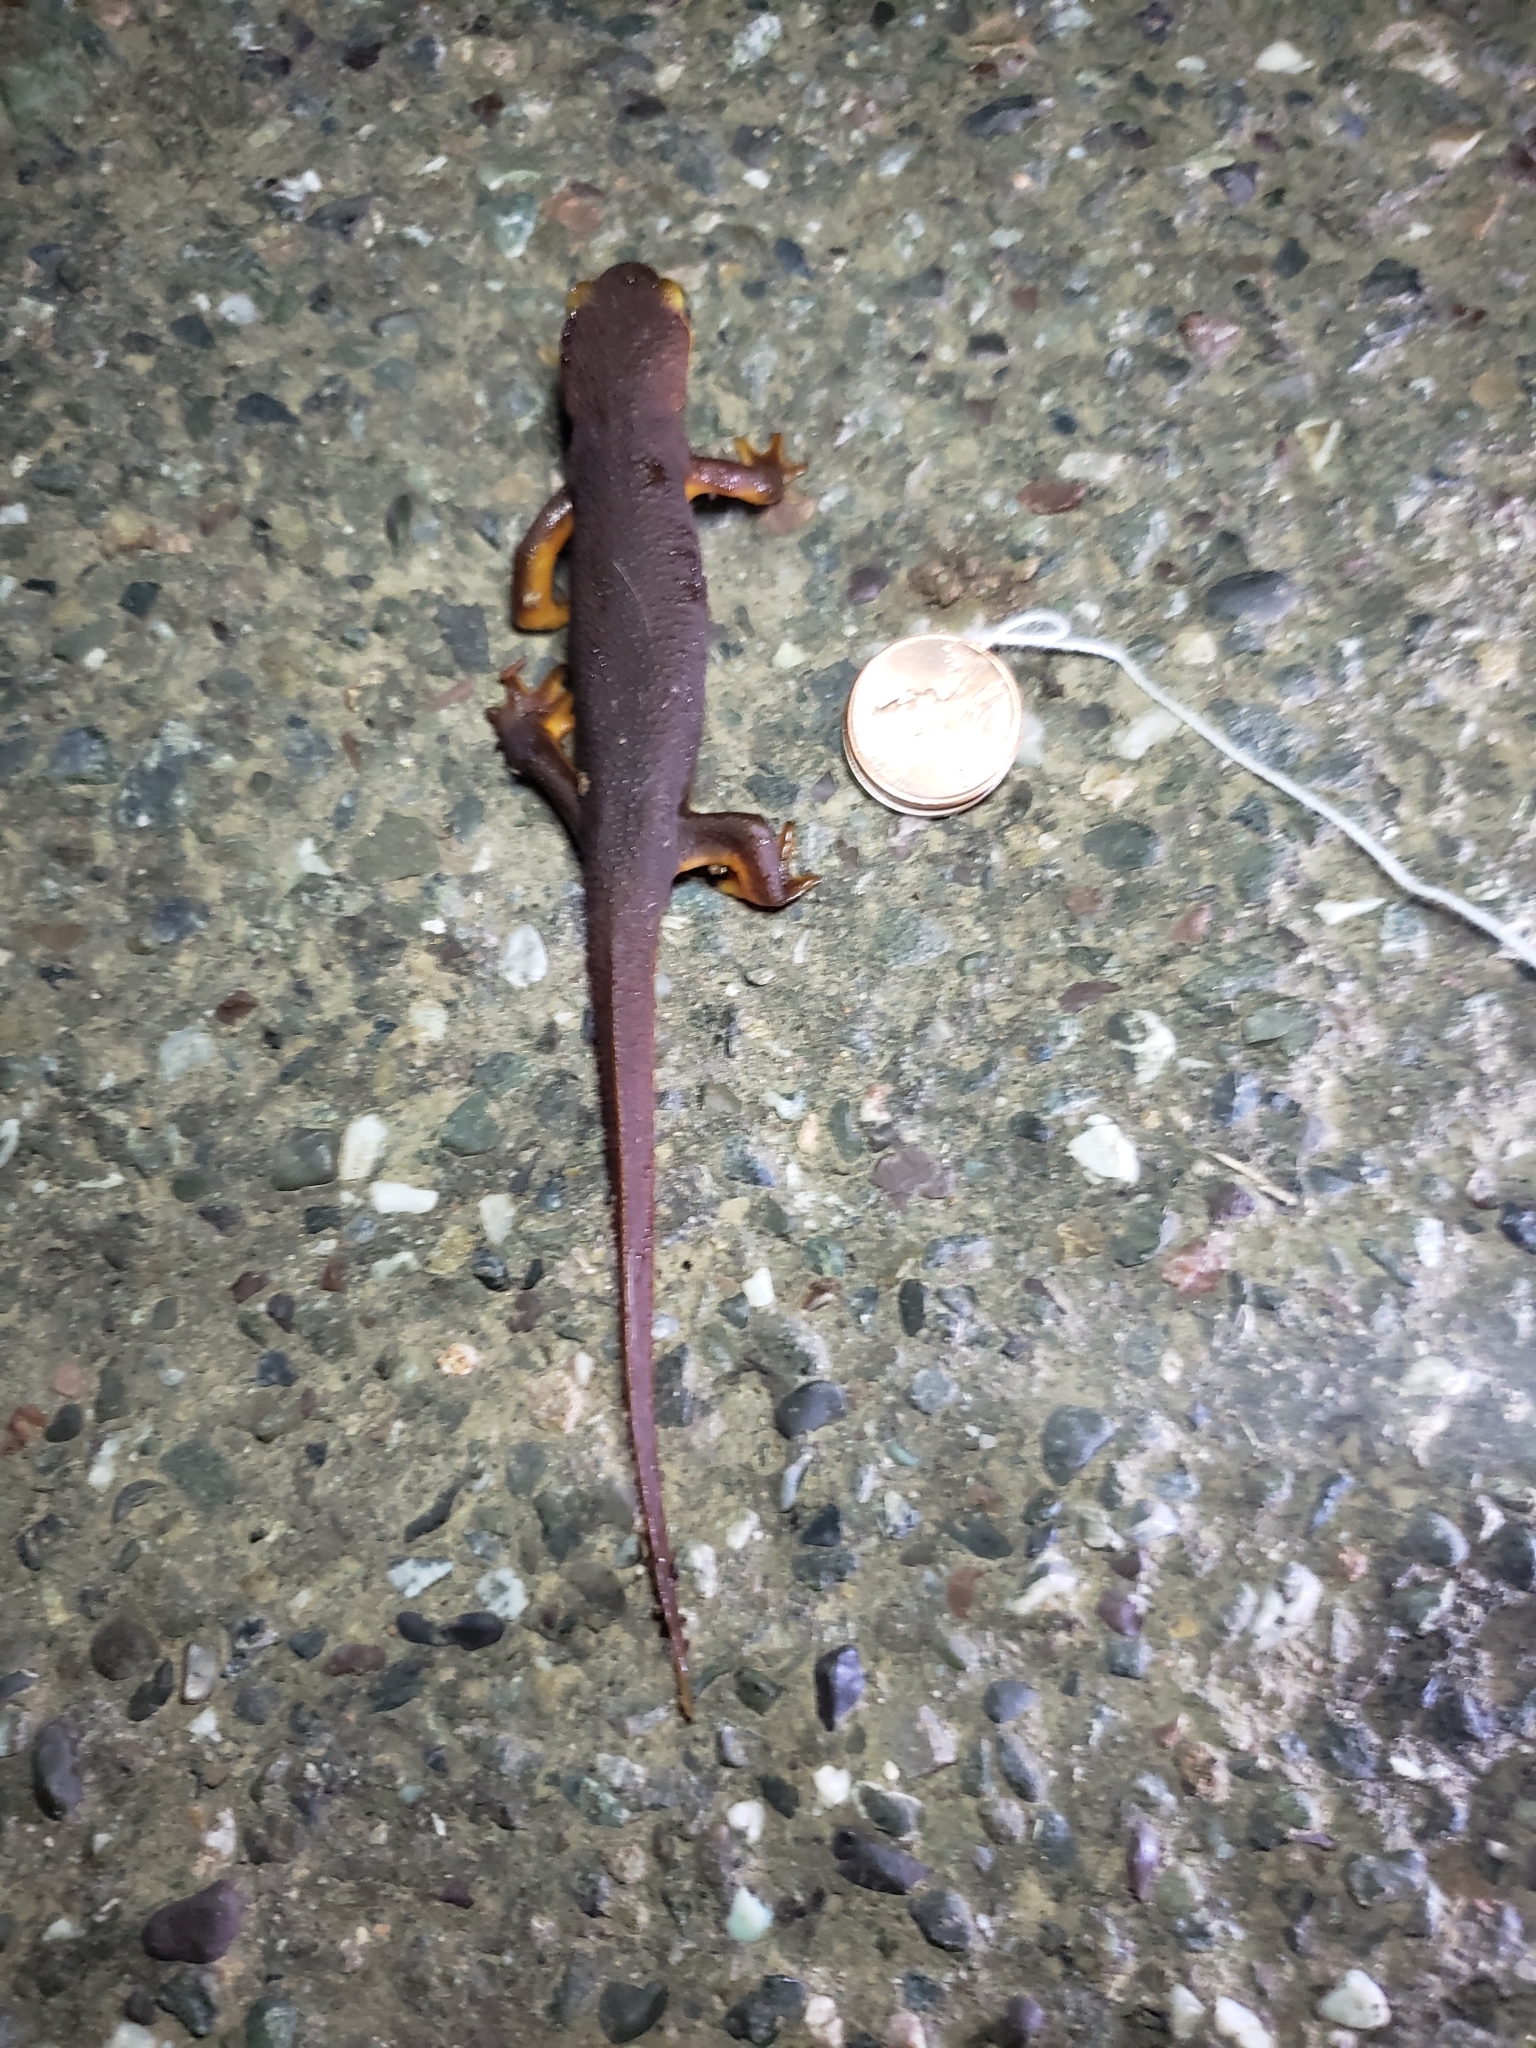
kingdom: Animalia
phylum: Chordata
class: Amphibia
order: Caudata
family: Salamandridae
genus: Taricha
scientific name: Taricha torosa
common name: California newt
